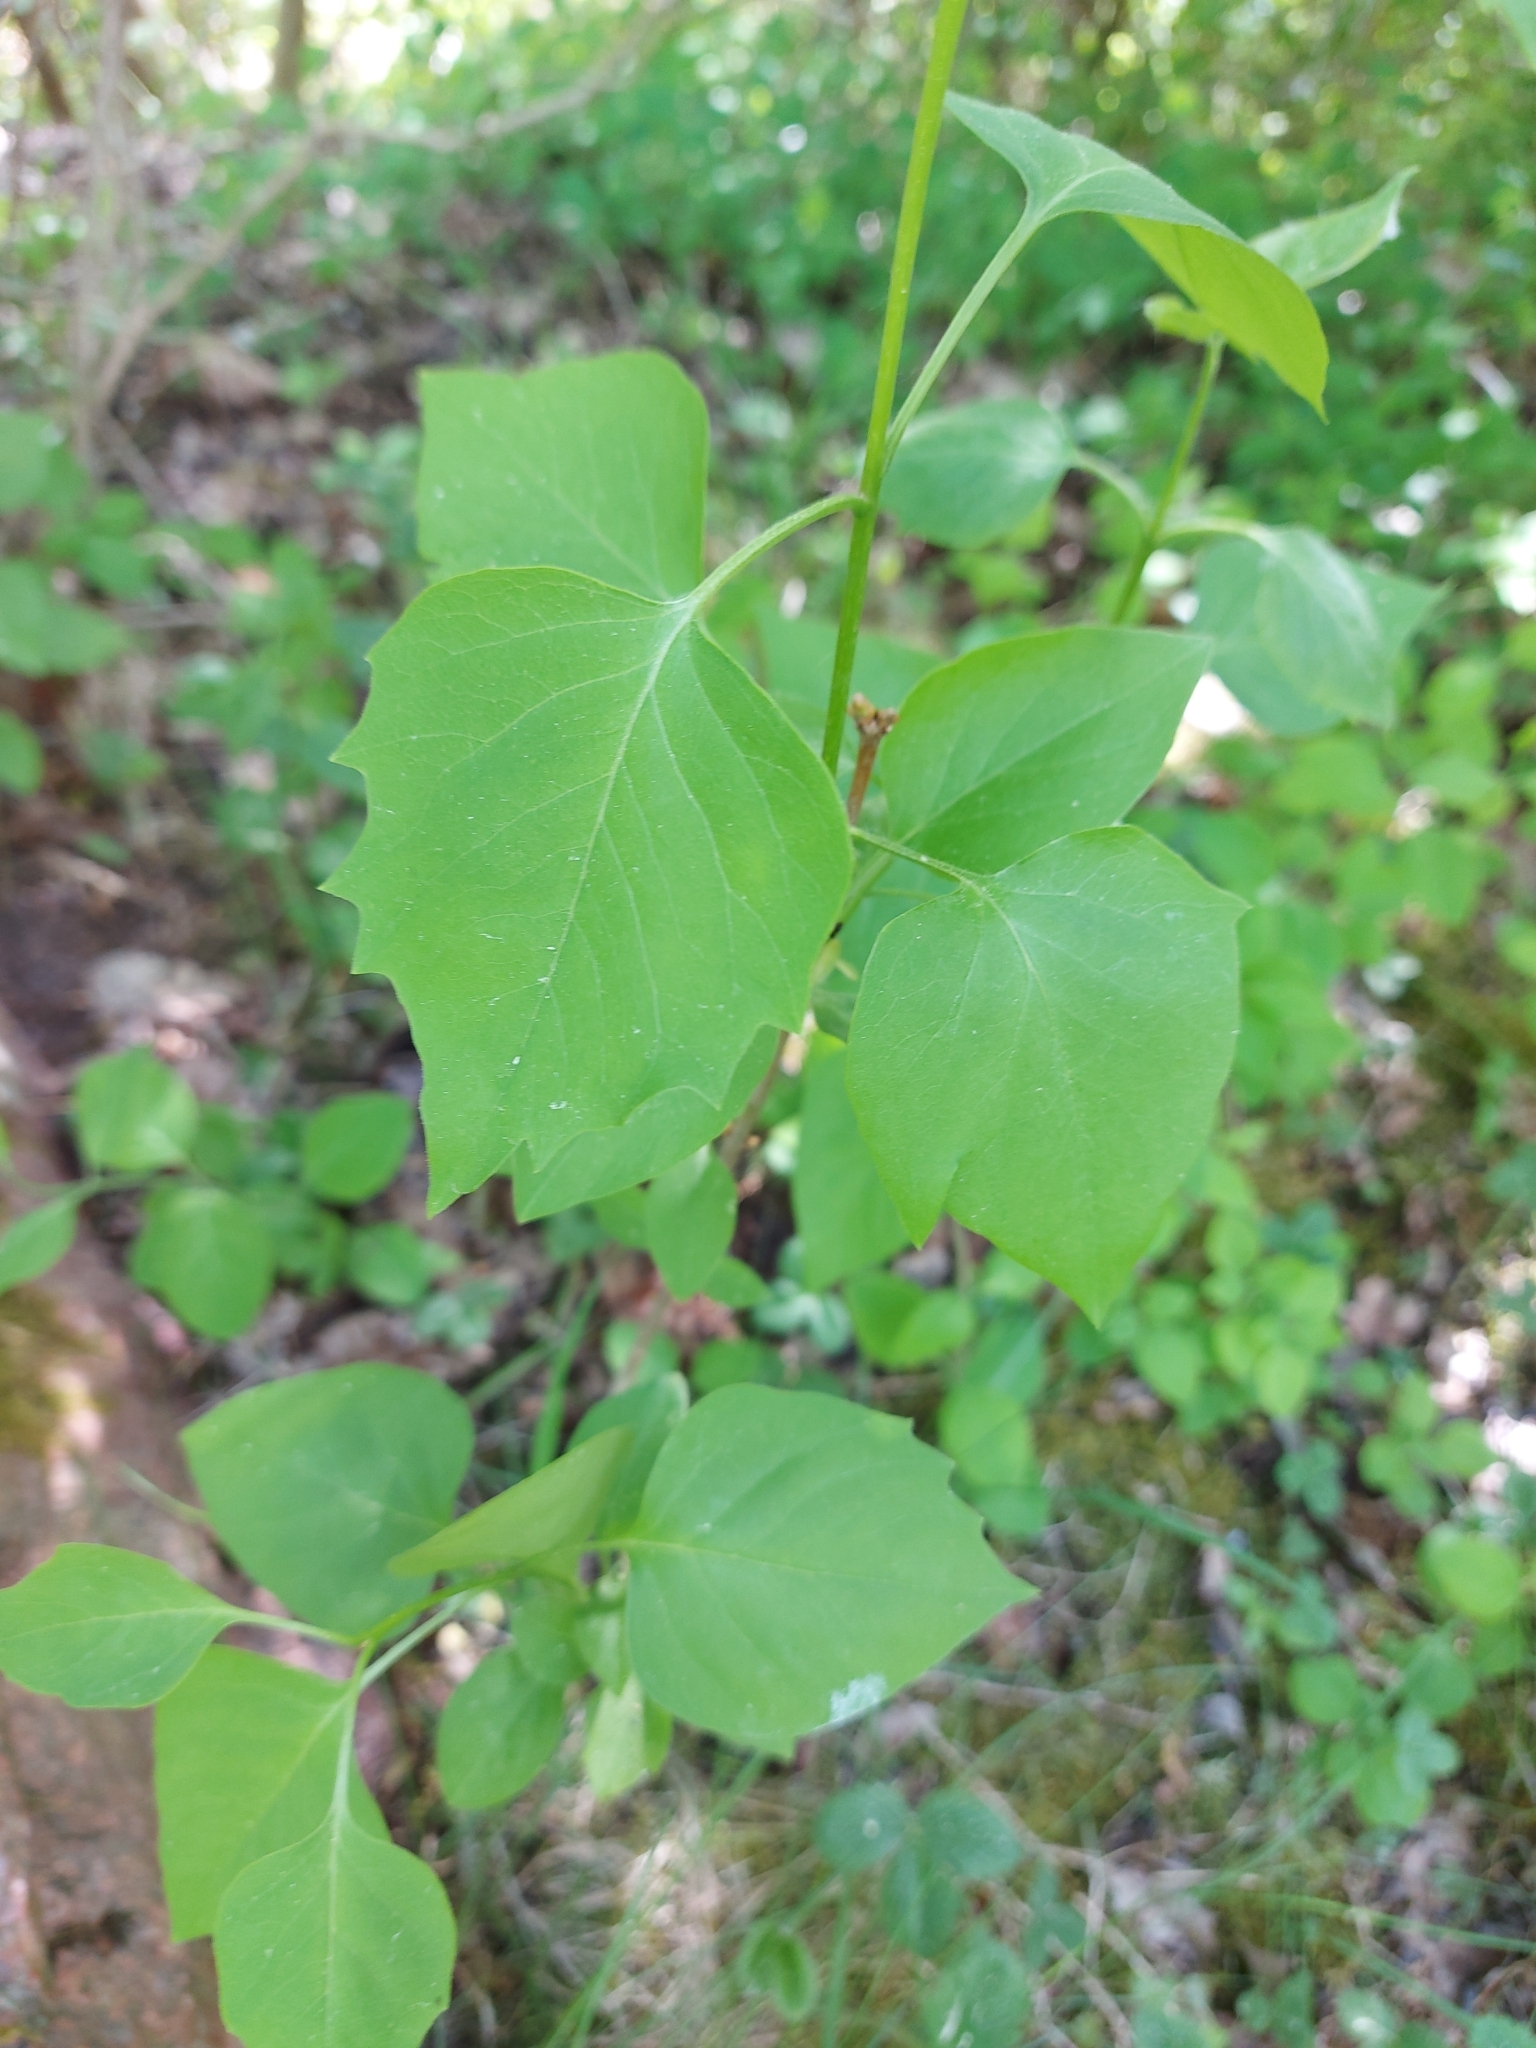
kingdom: Plantae
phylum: Tracheophyta
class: Magnoliopsida
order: Lamiales
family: Oleaceae
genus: Syringa
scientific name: Syringa vulgaris
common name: Common lilac
